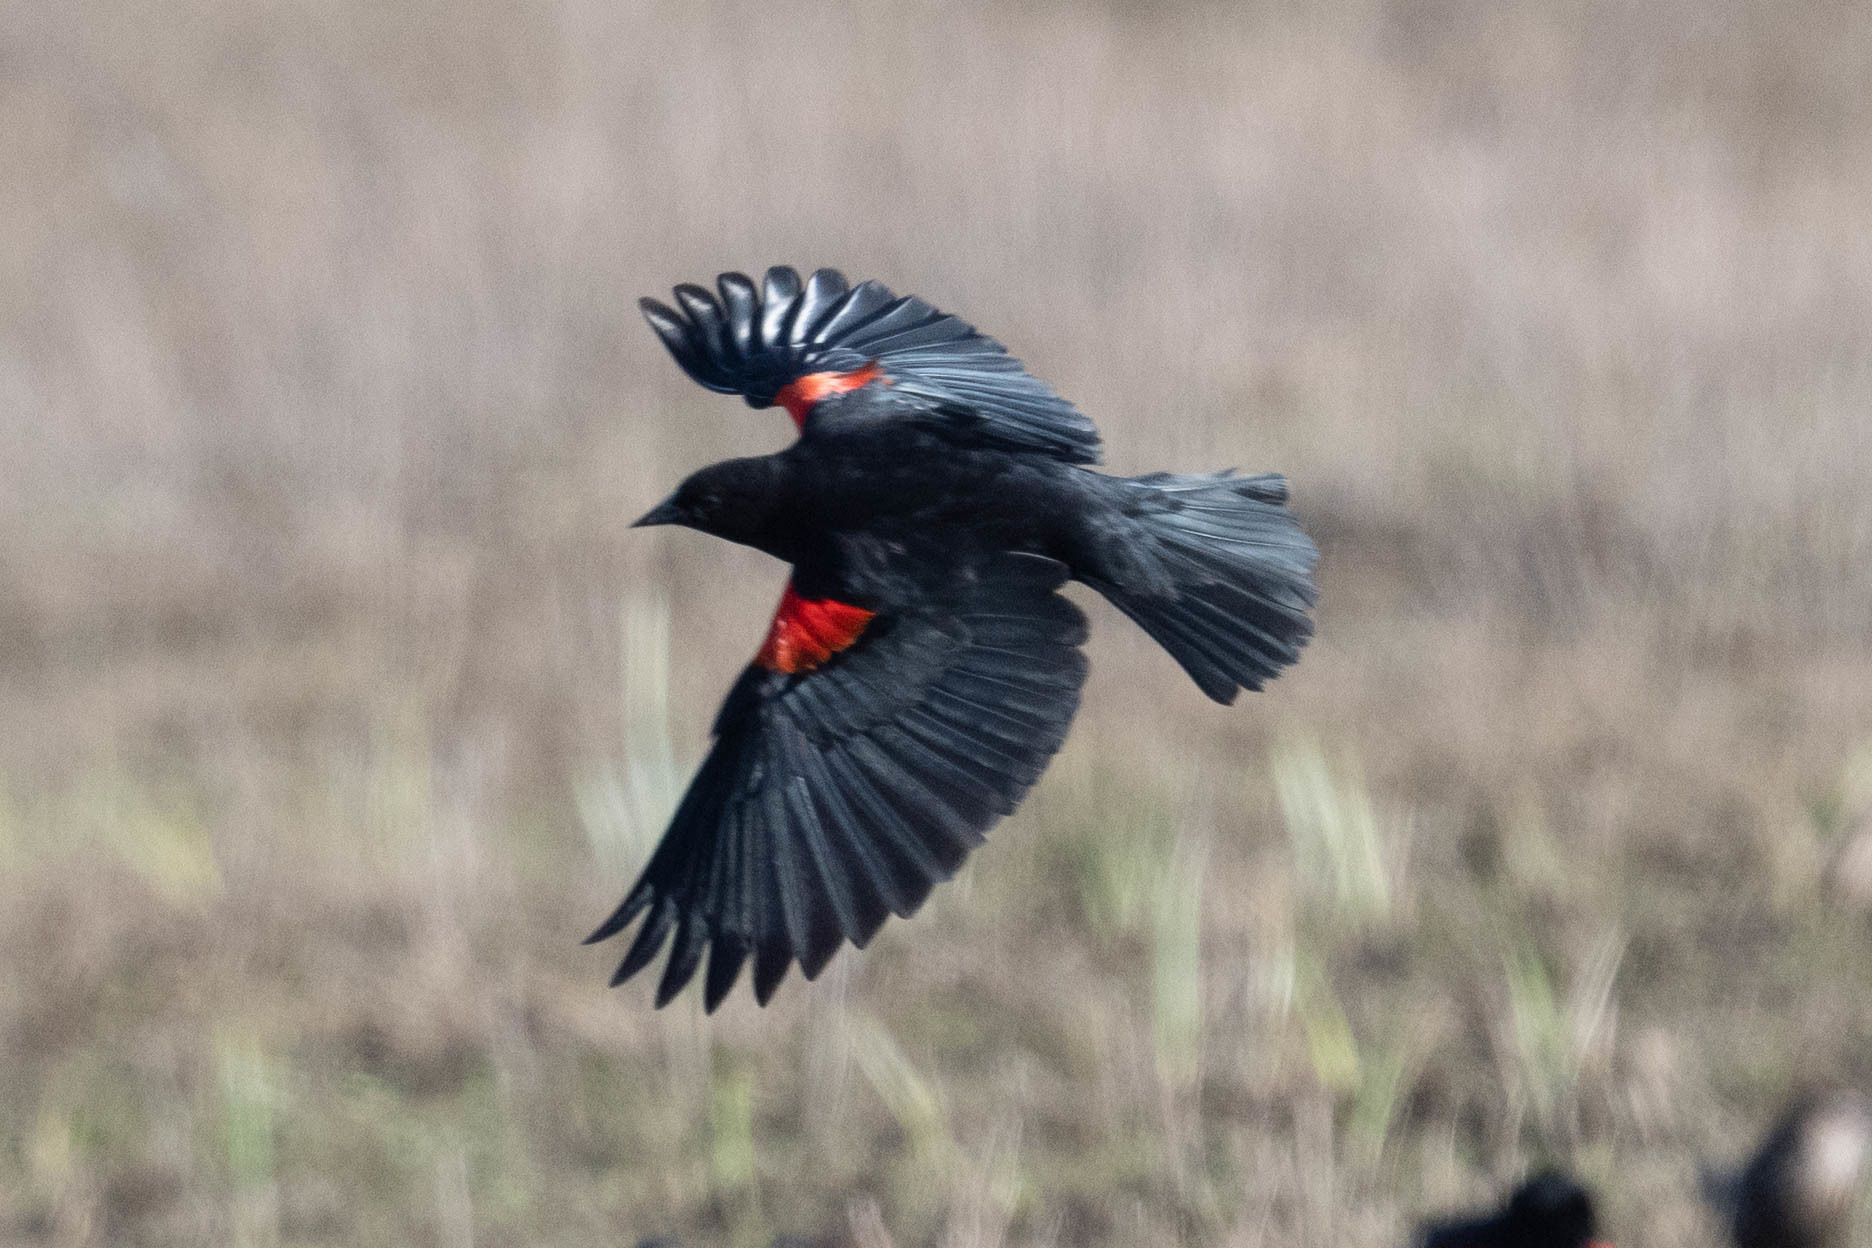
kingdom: Animalia
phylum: Chordata
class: Aves
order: Passeriformes
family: Icteridae
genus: Agelaius
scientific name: Agelaius phoeniceus
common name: Red-winged blackbird
